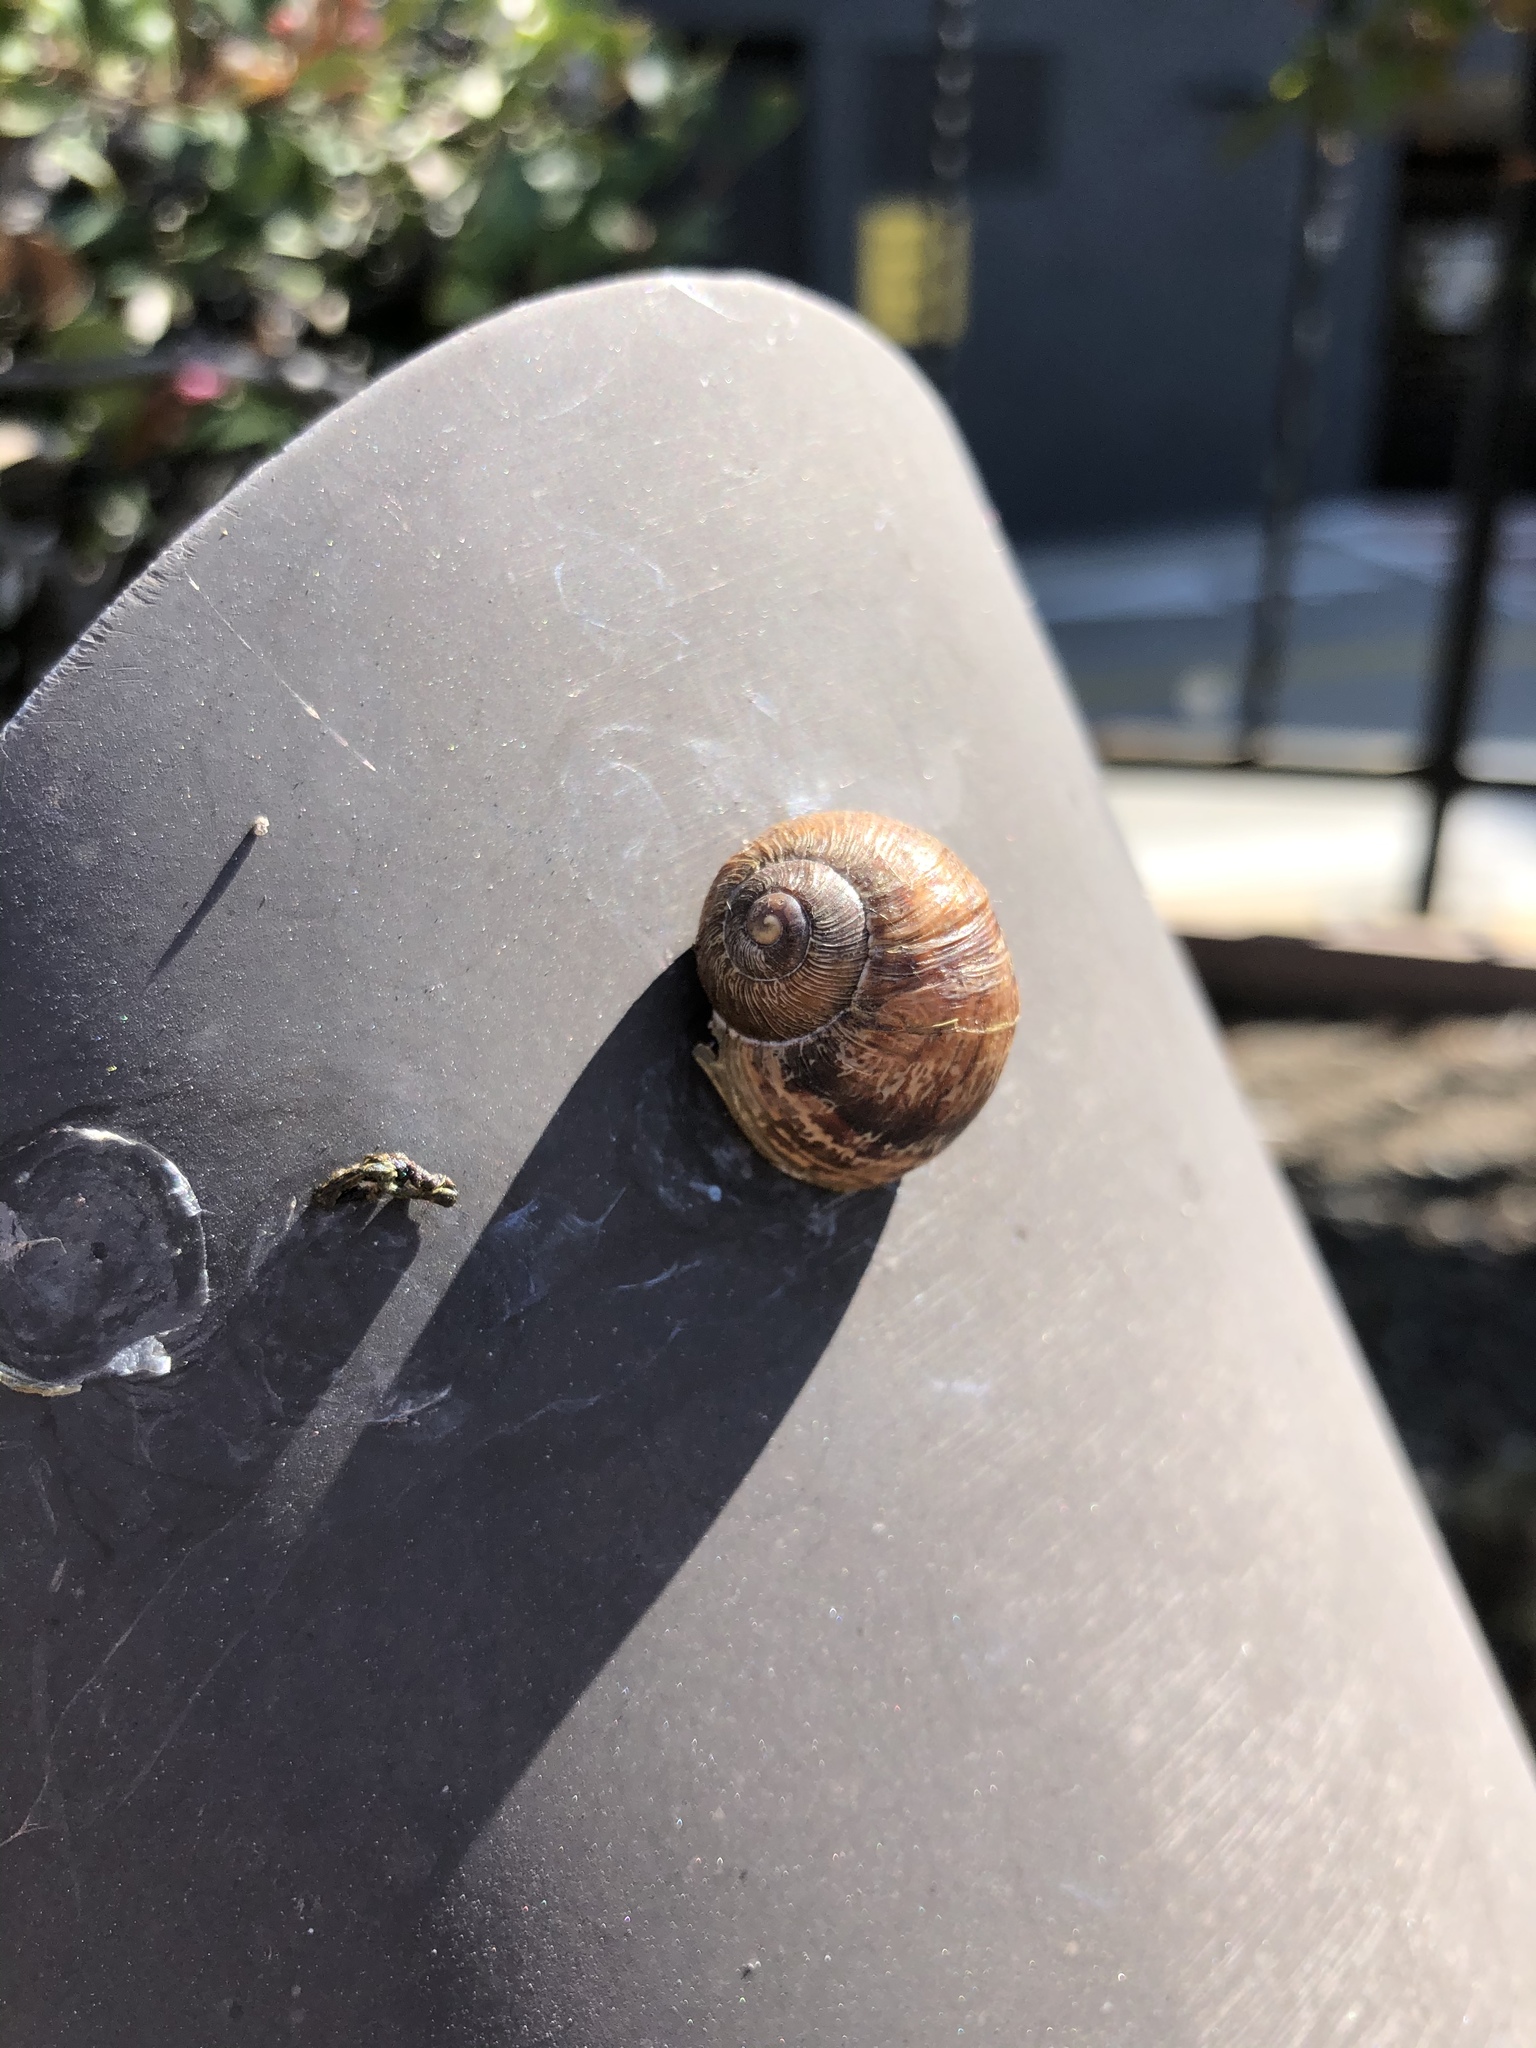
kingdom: Animalia
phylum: Mollusca
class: Gastropoda
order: Stylommatophora
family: Helicidae
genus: Cornu
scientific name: Cornu aspersum
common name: Brown garden snail
